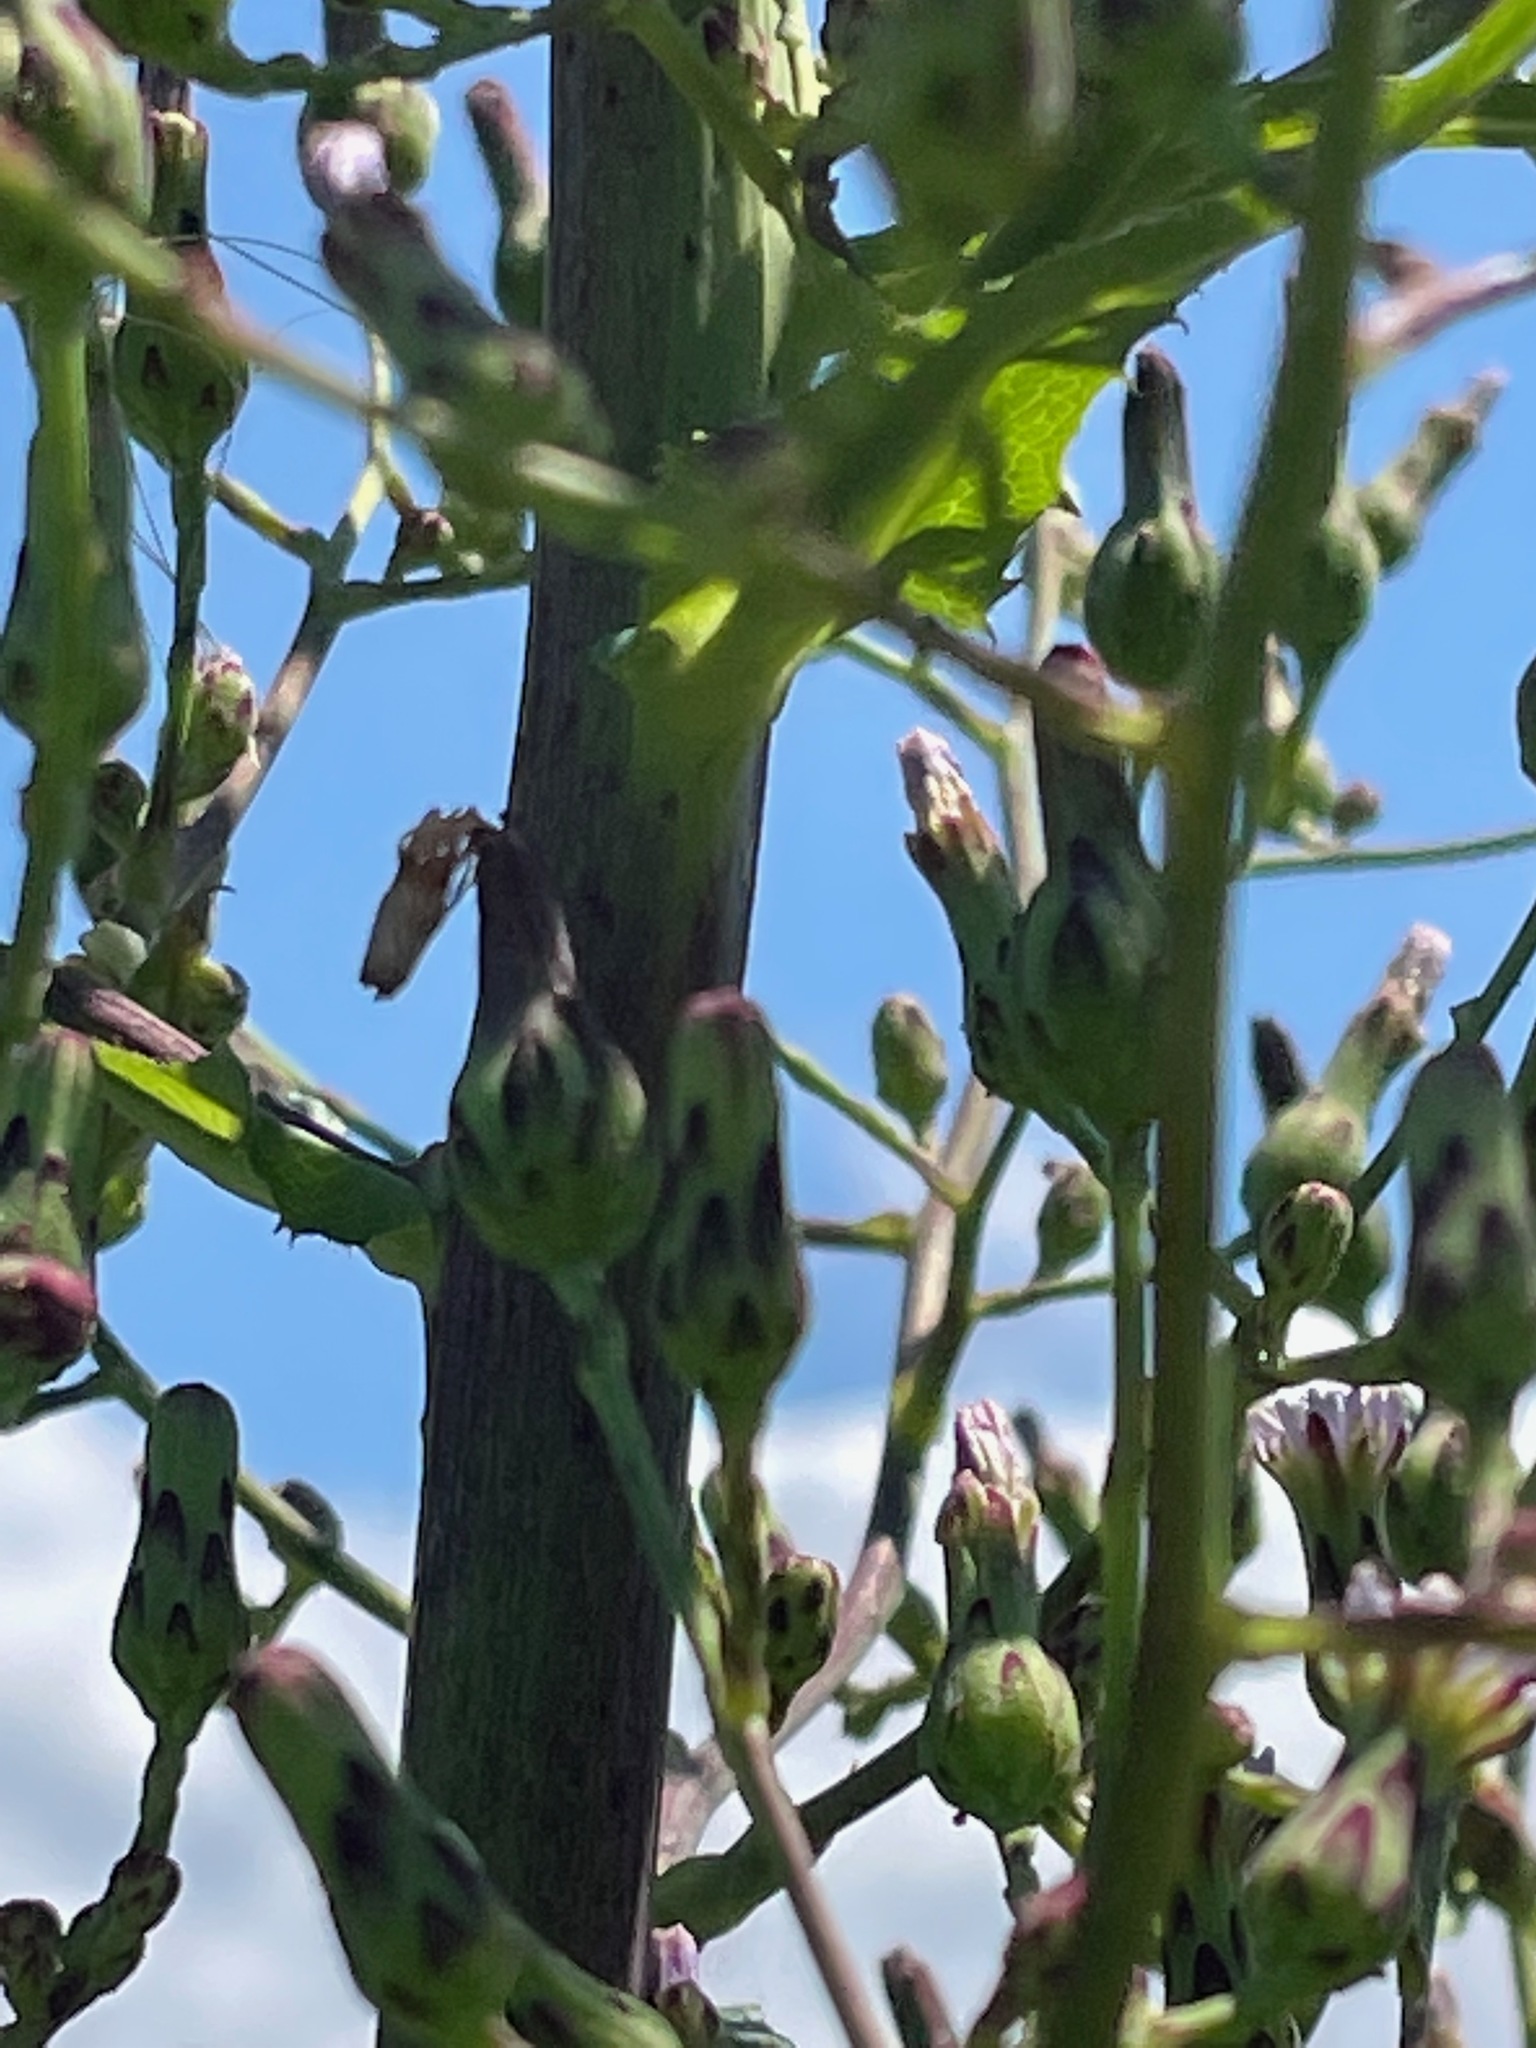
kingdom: Plantae
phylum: Tracheophyta
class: Magnoliopsida
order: Asterales
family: Asteraceae
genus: Lactuca
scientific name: Lactuca biennis
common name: Blue wood lettuce
